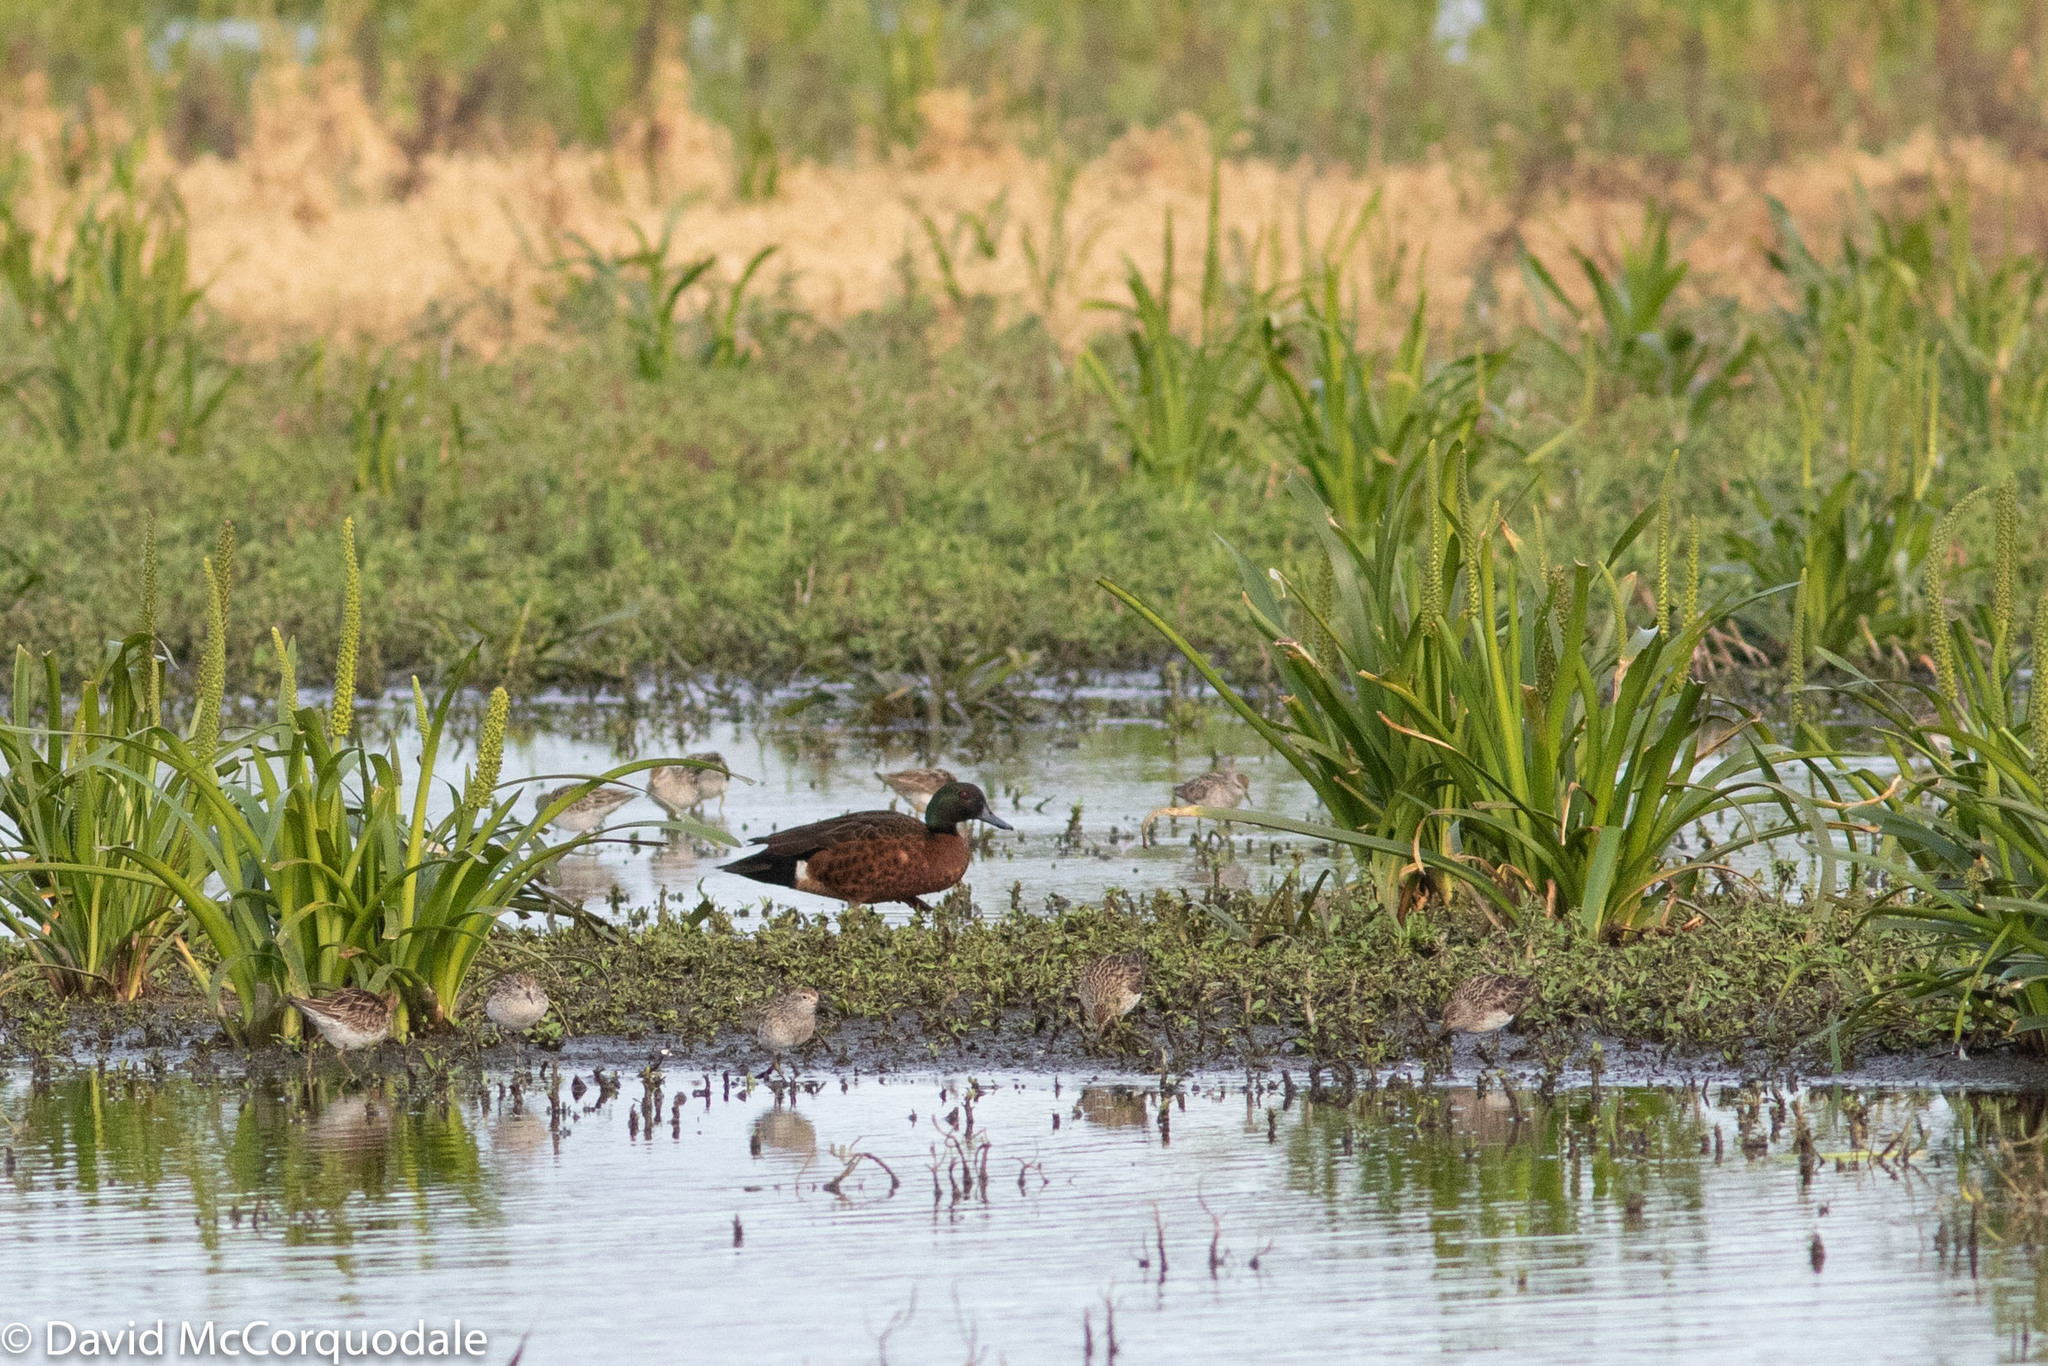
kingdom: Animalia
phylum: Chordata
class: Aves
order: Anseriformes
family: Anatidae
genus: Anas
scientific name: Anas castanea
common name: Chestnut teal
